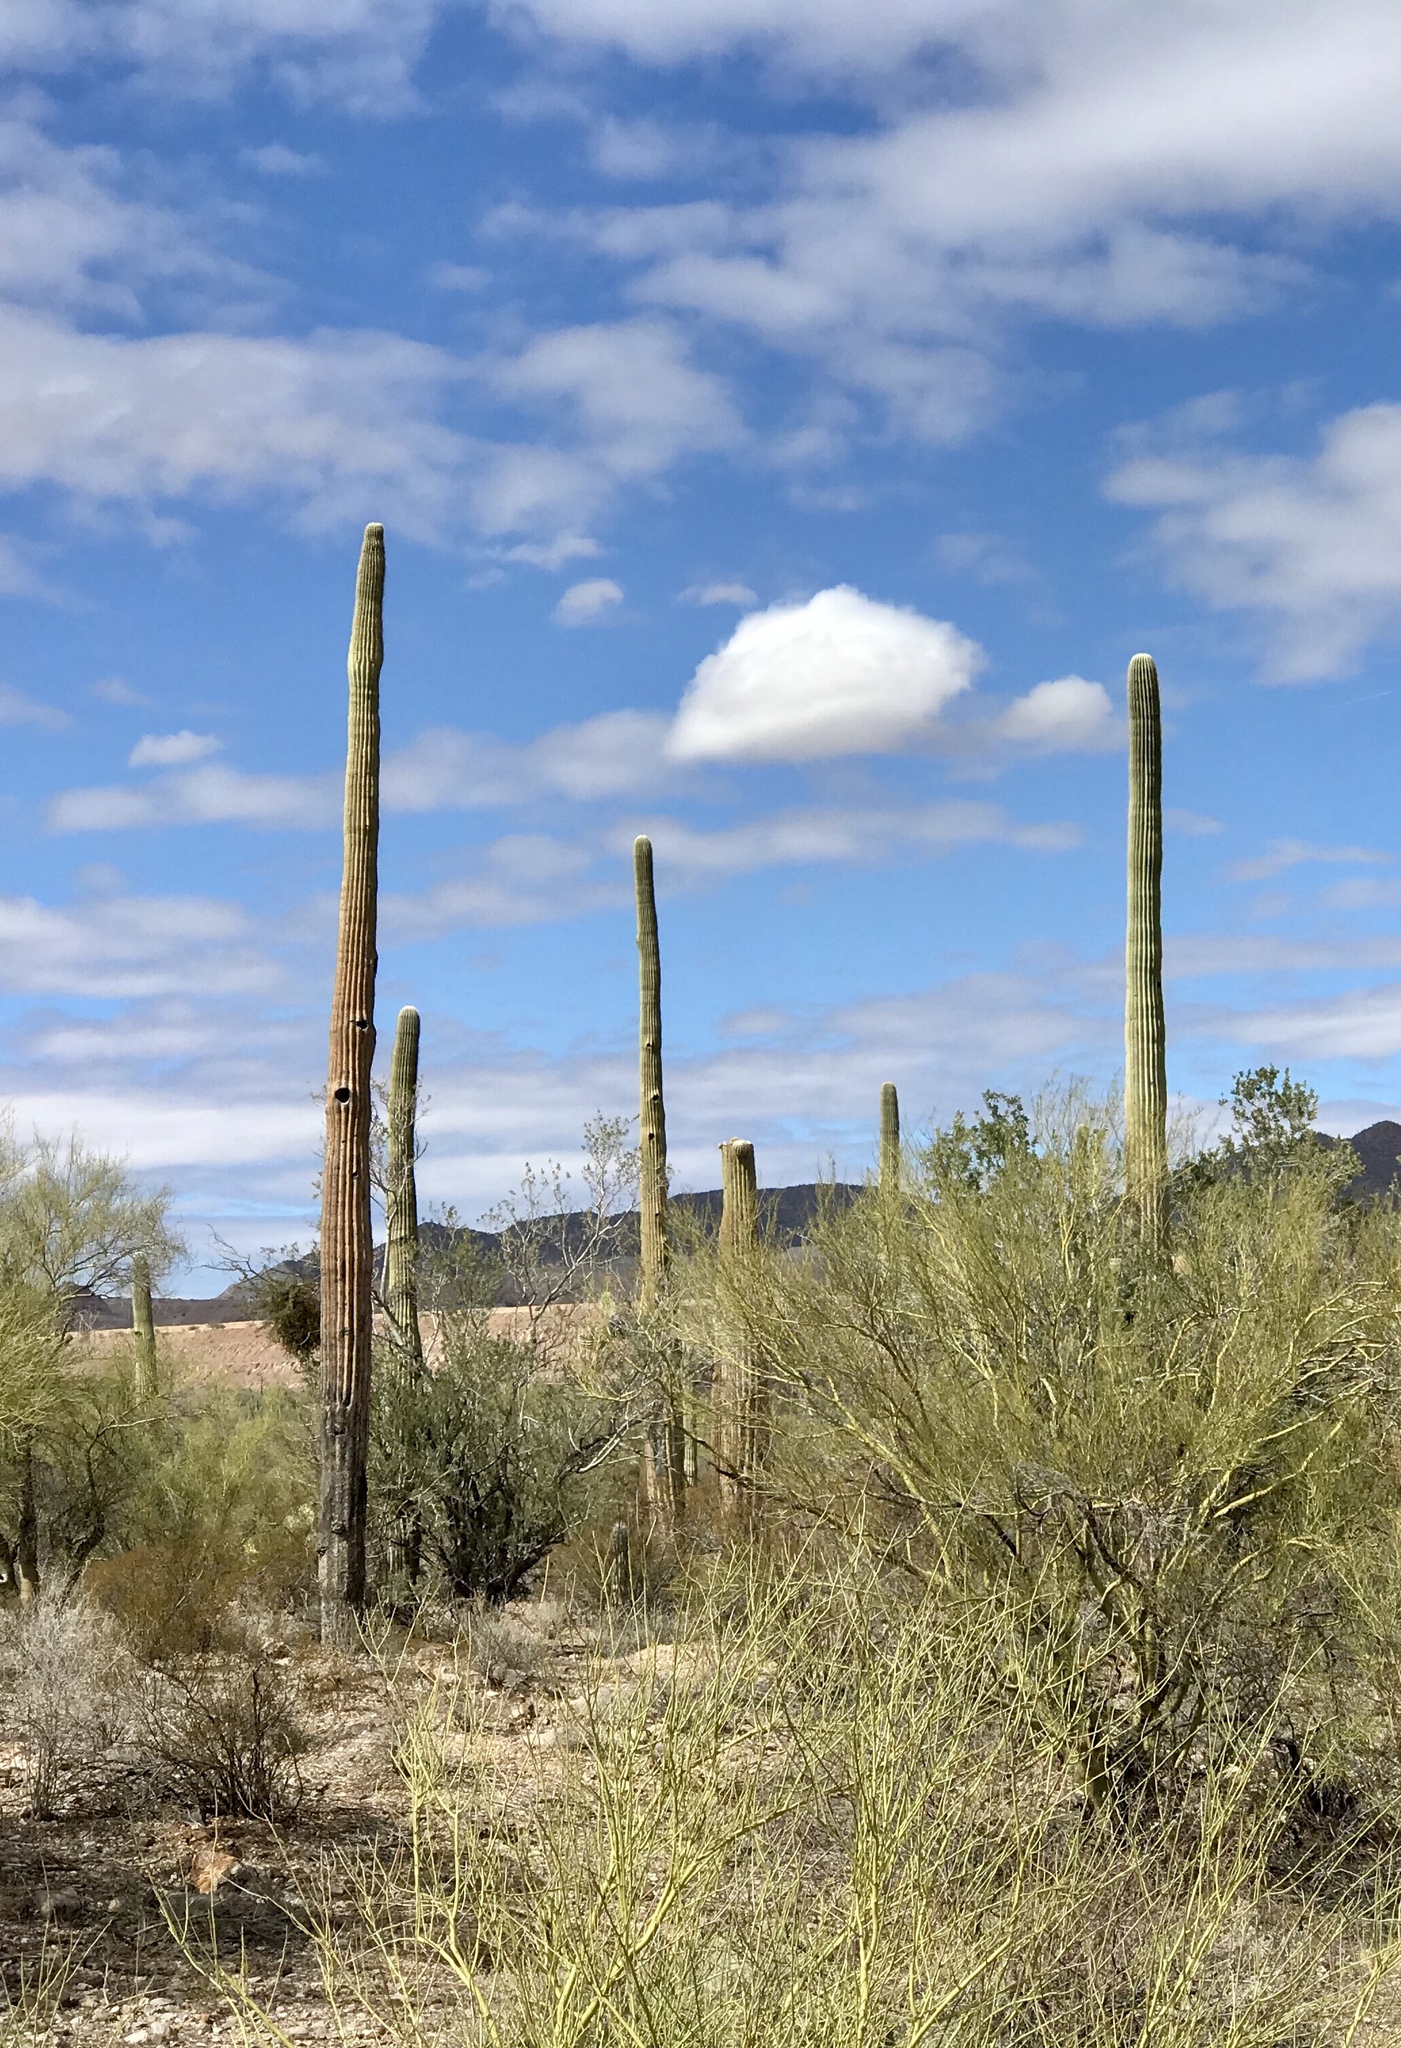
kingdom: Plantae
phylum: Tracheophyta
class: Magnoliopsida
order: Caryophyllales
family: Cactaceae
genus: Carnegiea
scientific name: Carnegiea gigantea
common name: Saguaro
